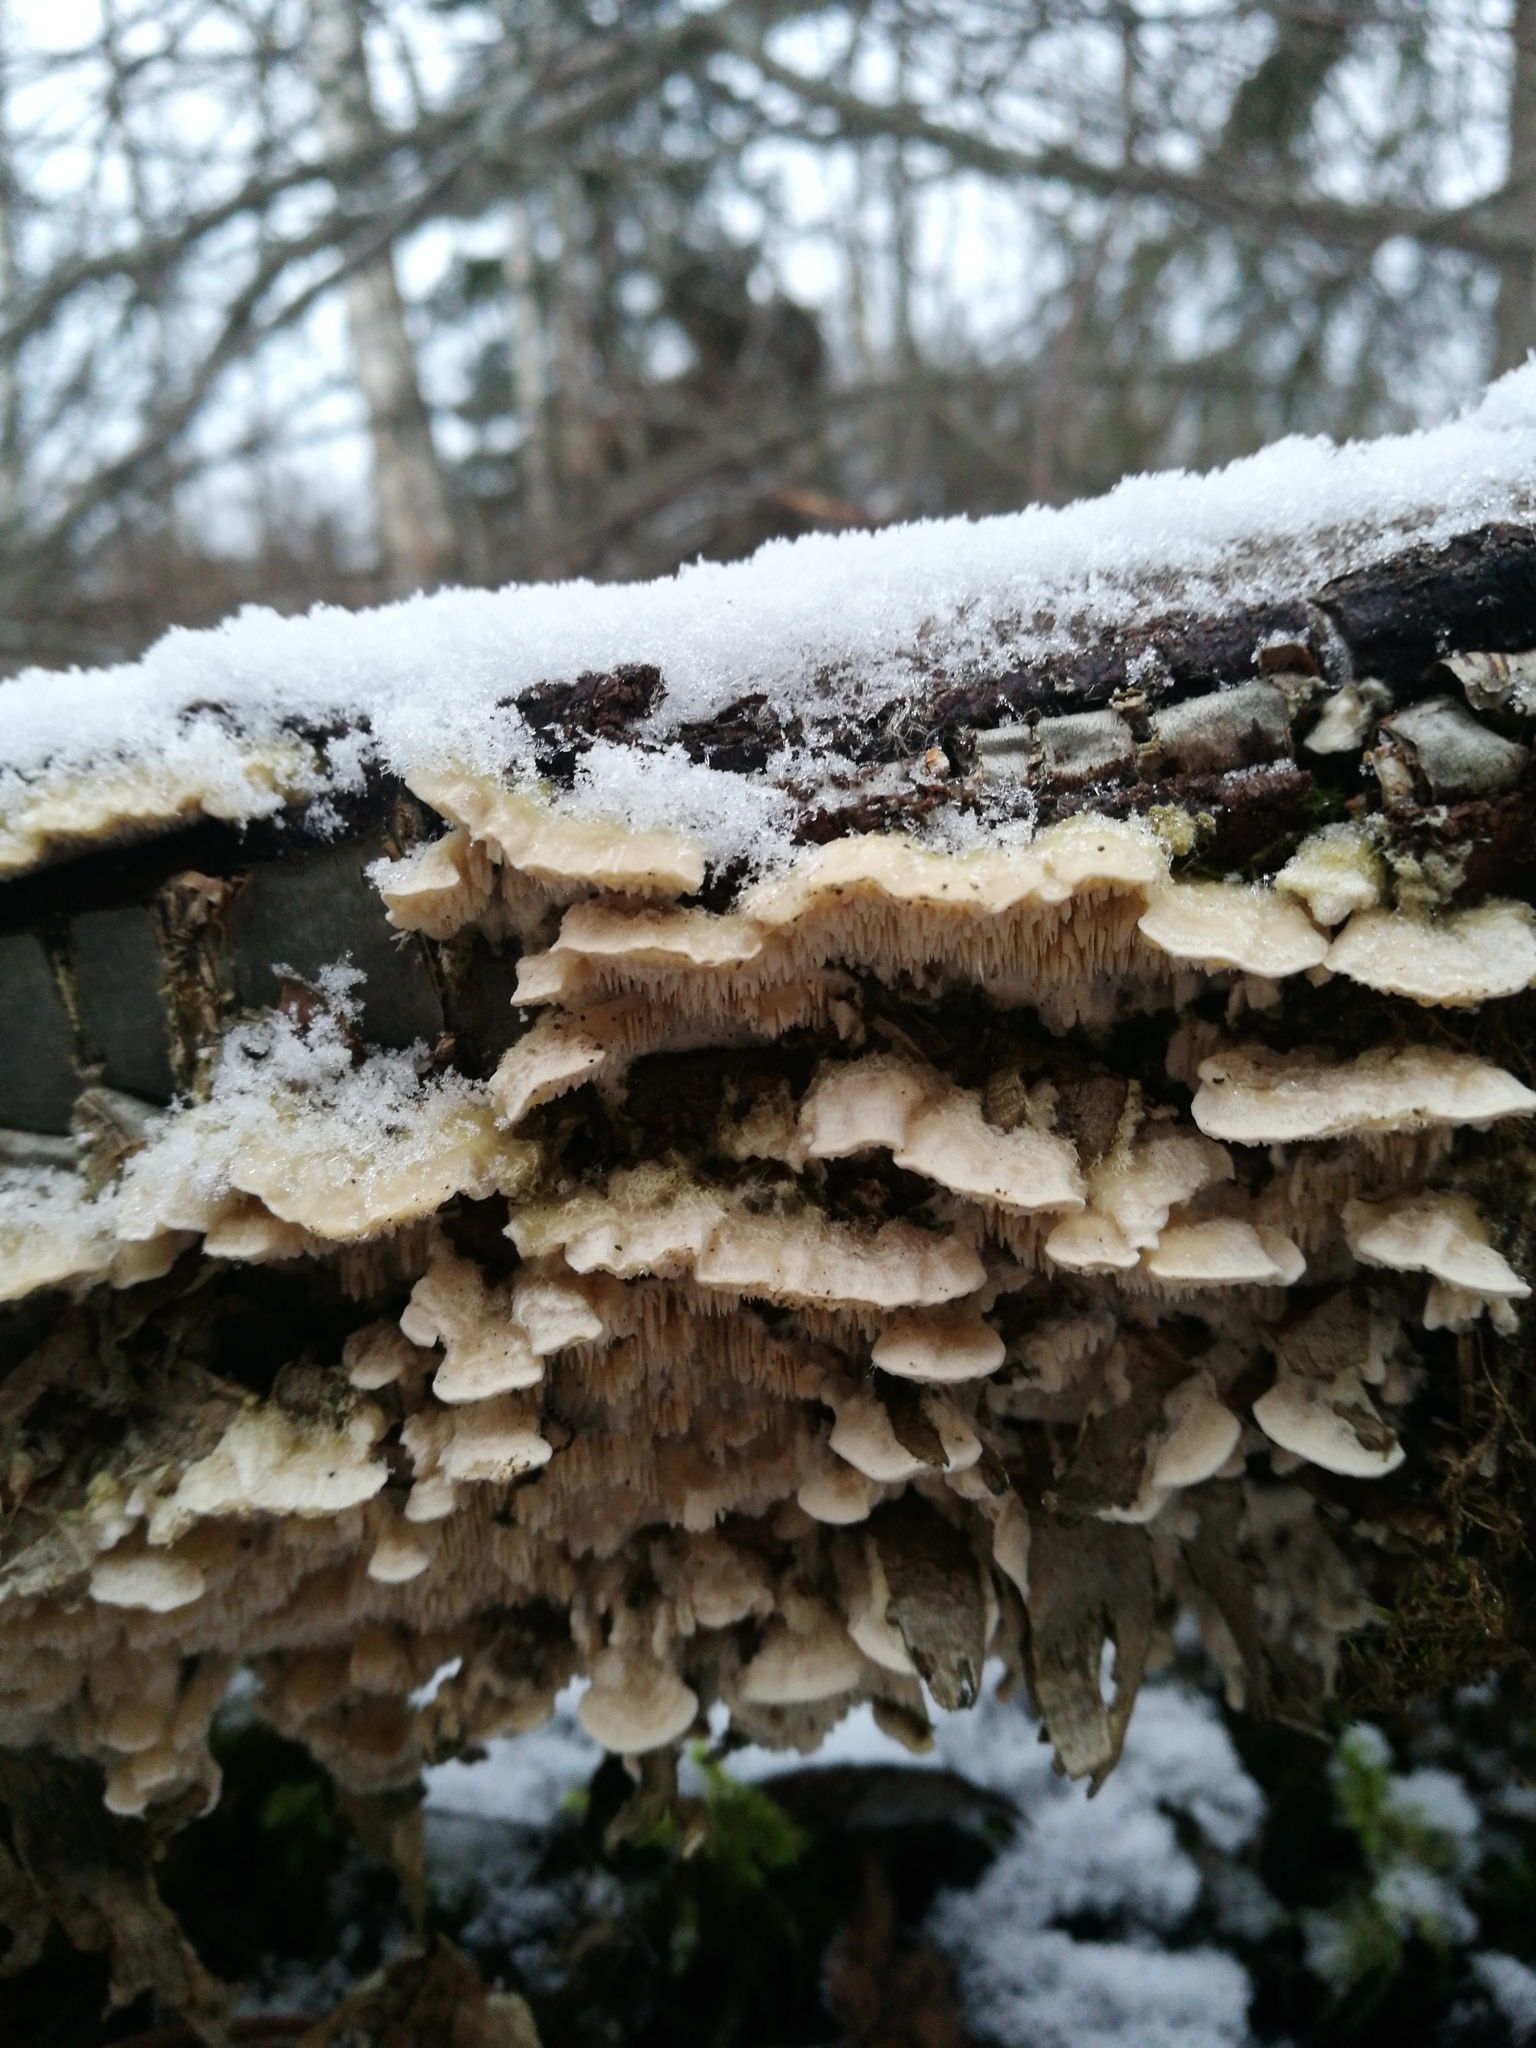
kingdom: Fungi
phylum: Basidiomycota
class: Agaricomycetes
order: Polyporales
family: Cerrenaceae
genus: Cerrena
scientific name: Cerrena unicolor
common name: Mossy maze polypore
